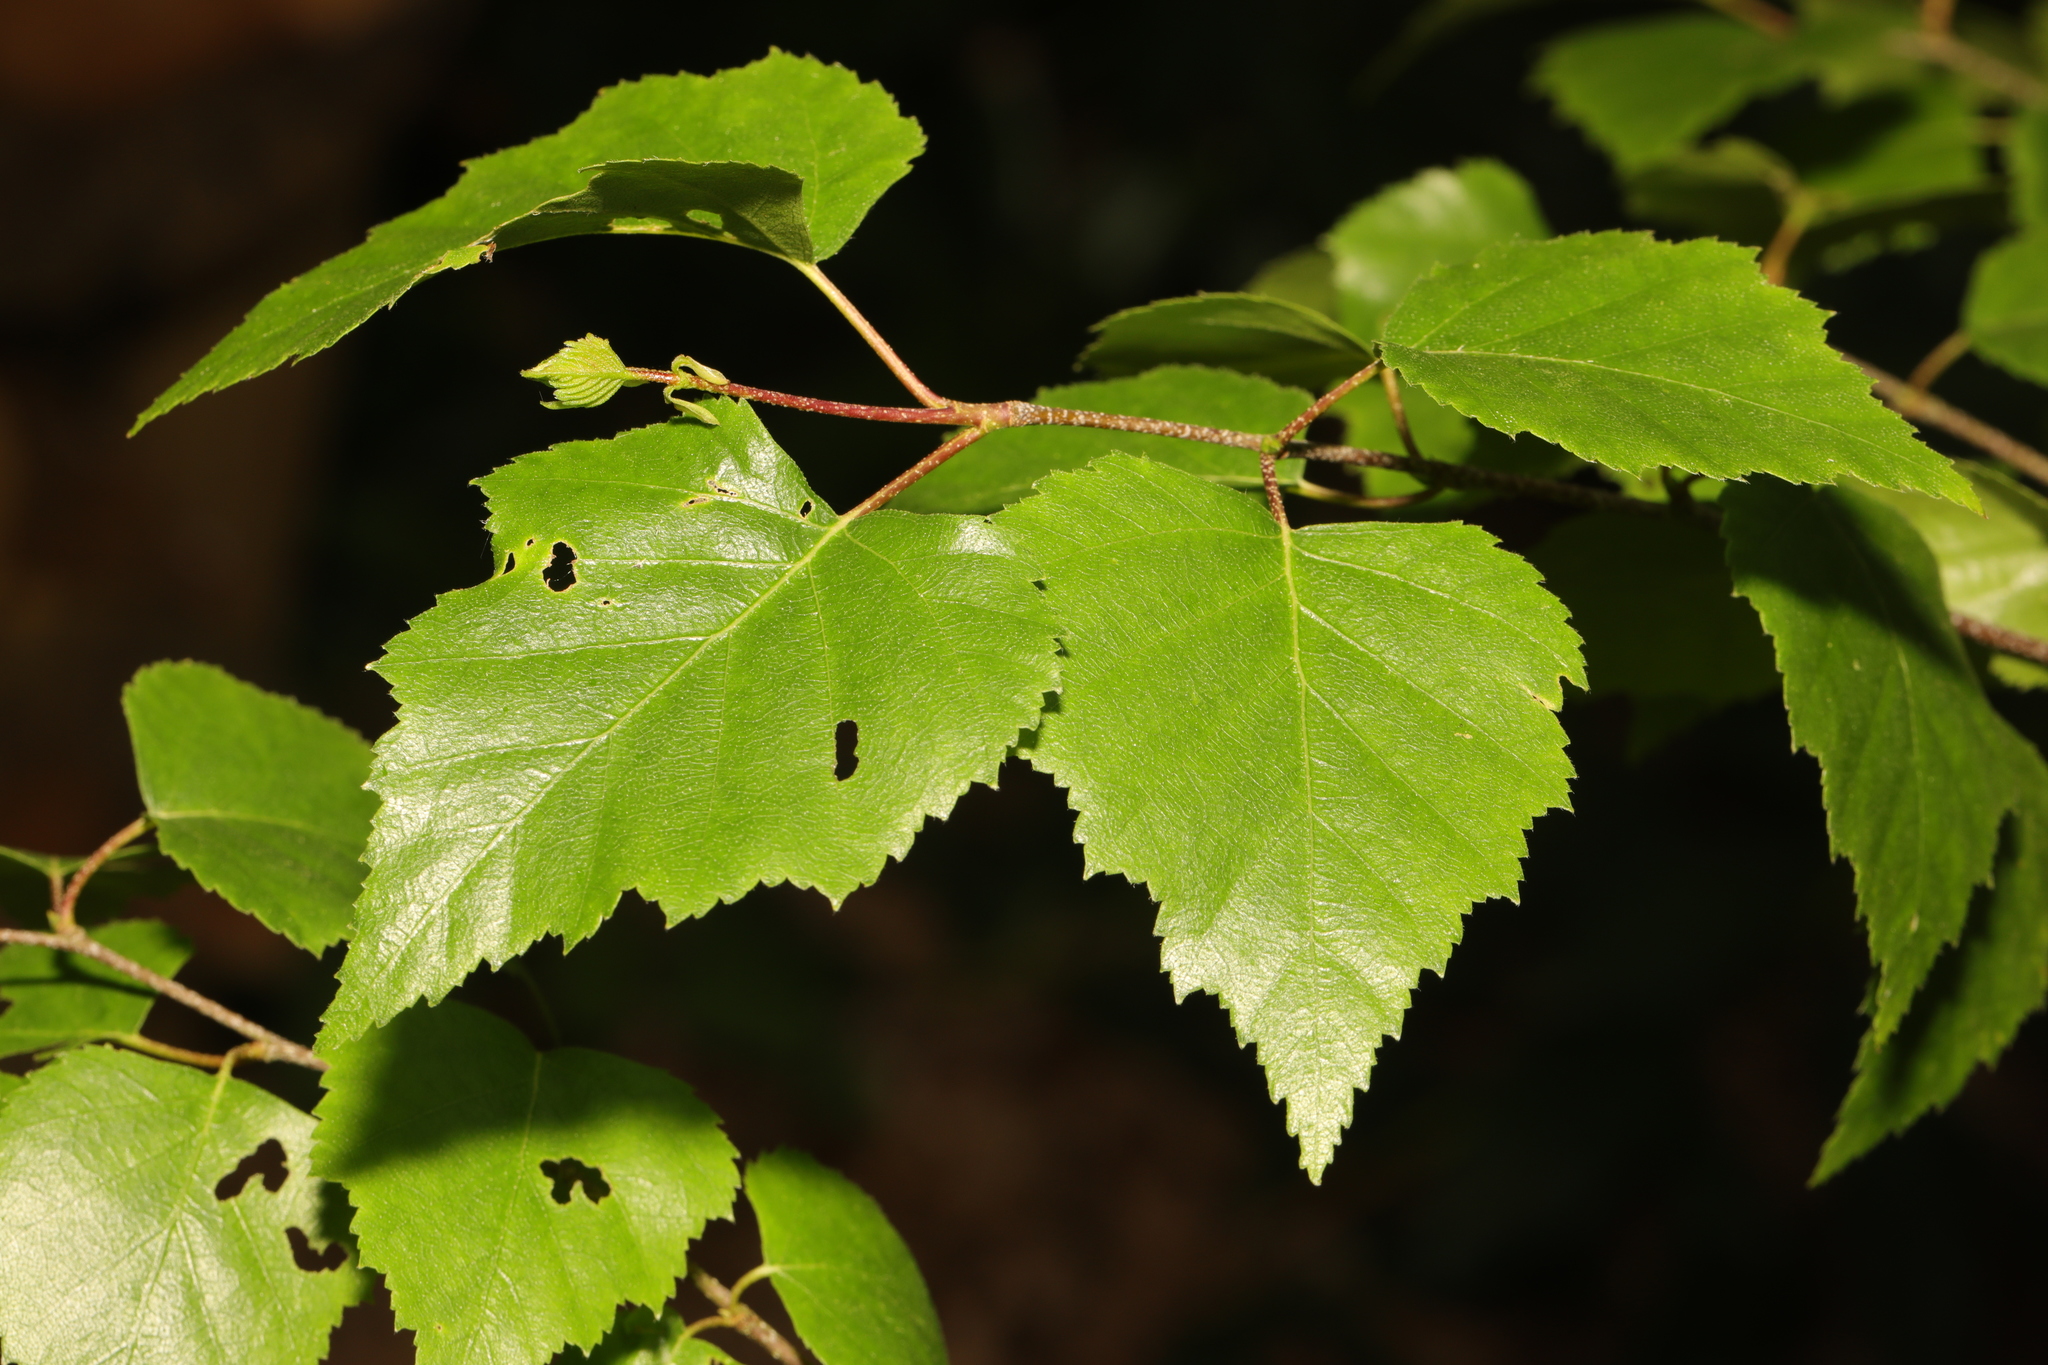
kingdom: Plantae
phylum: Tracheophyta
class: Magnoliopsida
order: Fagales
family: Betulaceae
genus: Betula
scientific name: Betula pendula
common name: Silver birch
